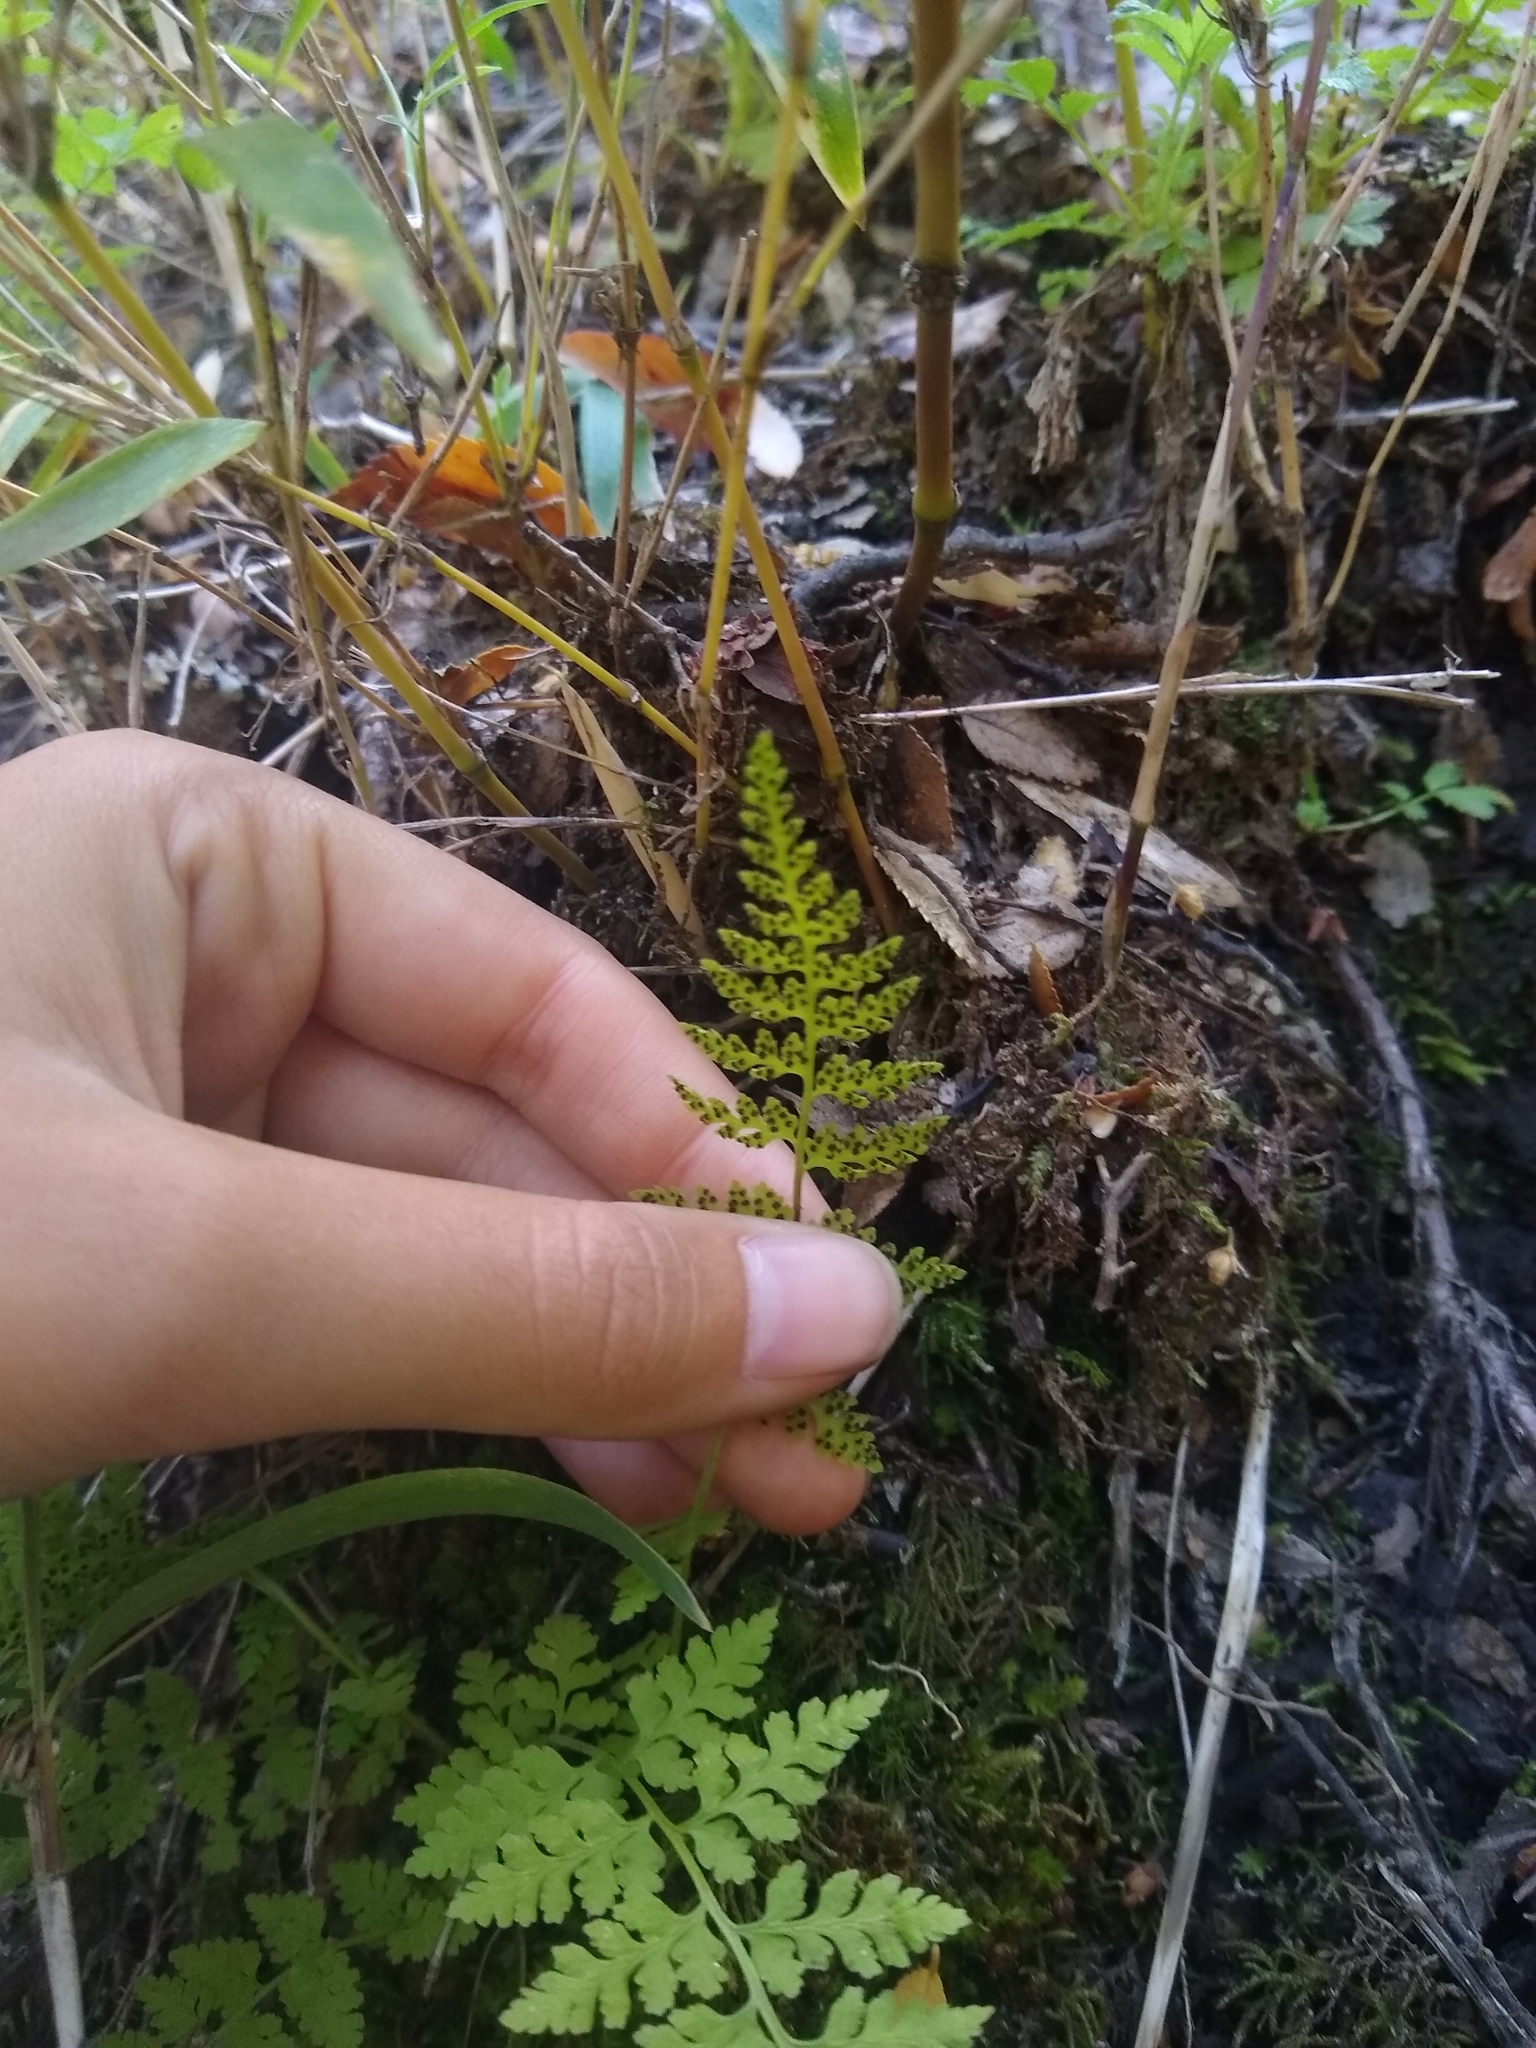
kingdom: Plantae
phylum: Tracheophyta
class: Polypodiopsida
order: Polypodiales
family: Cystopteridaceae
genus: Cystopteris
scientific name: Cystopteris fragilis
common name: Brittle bladder fern
